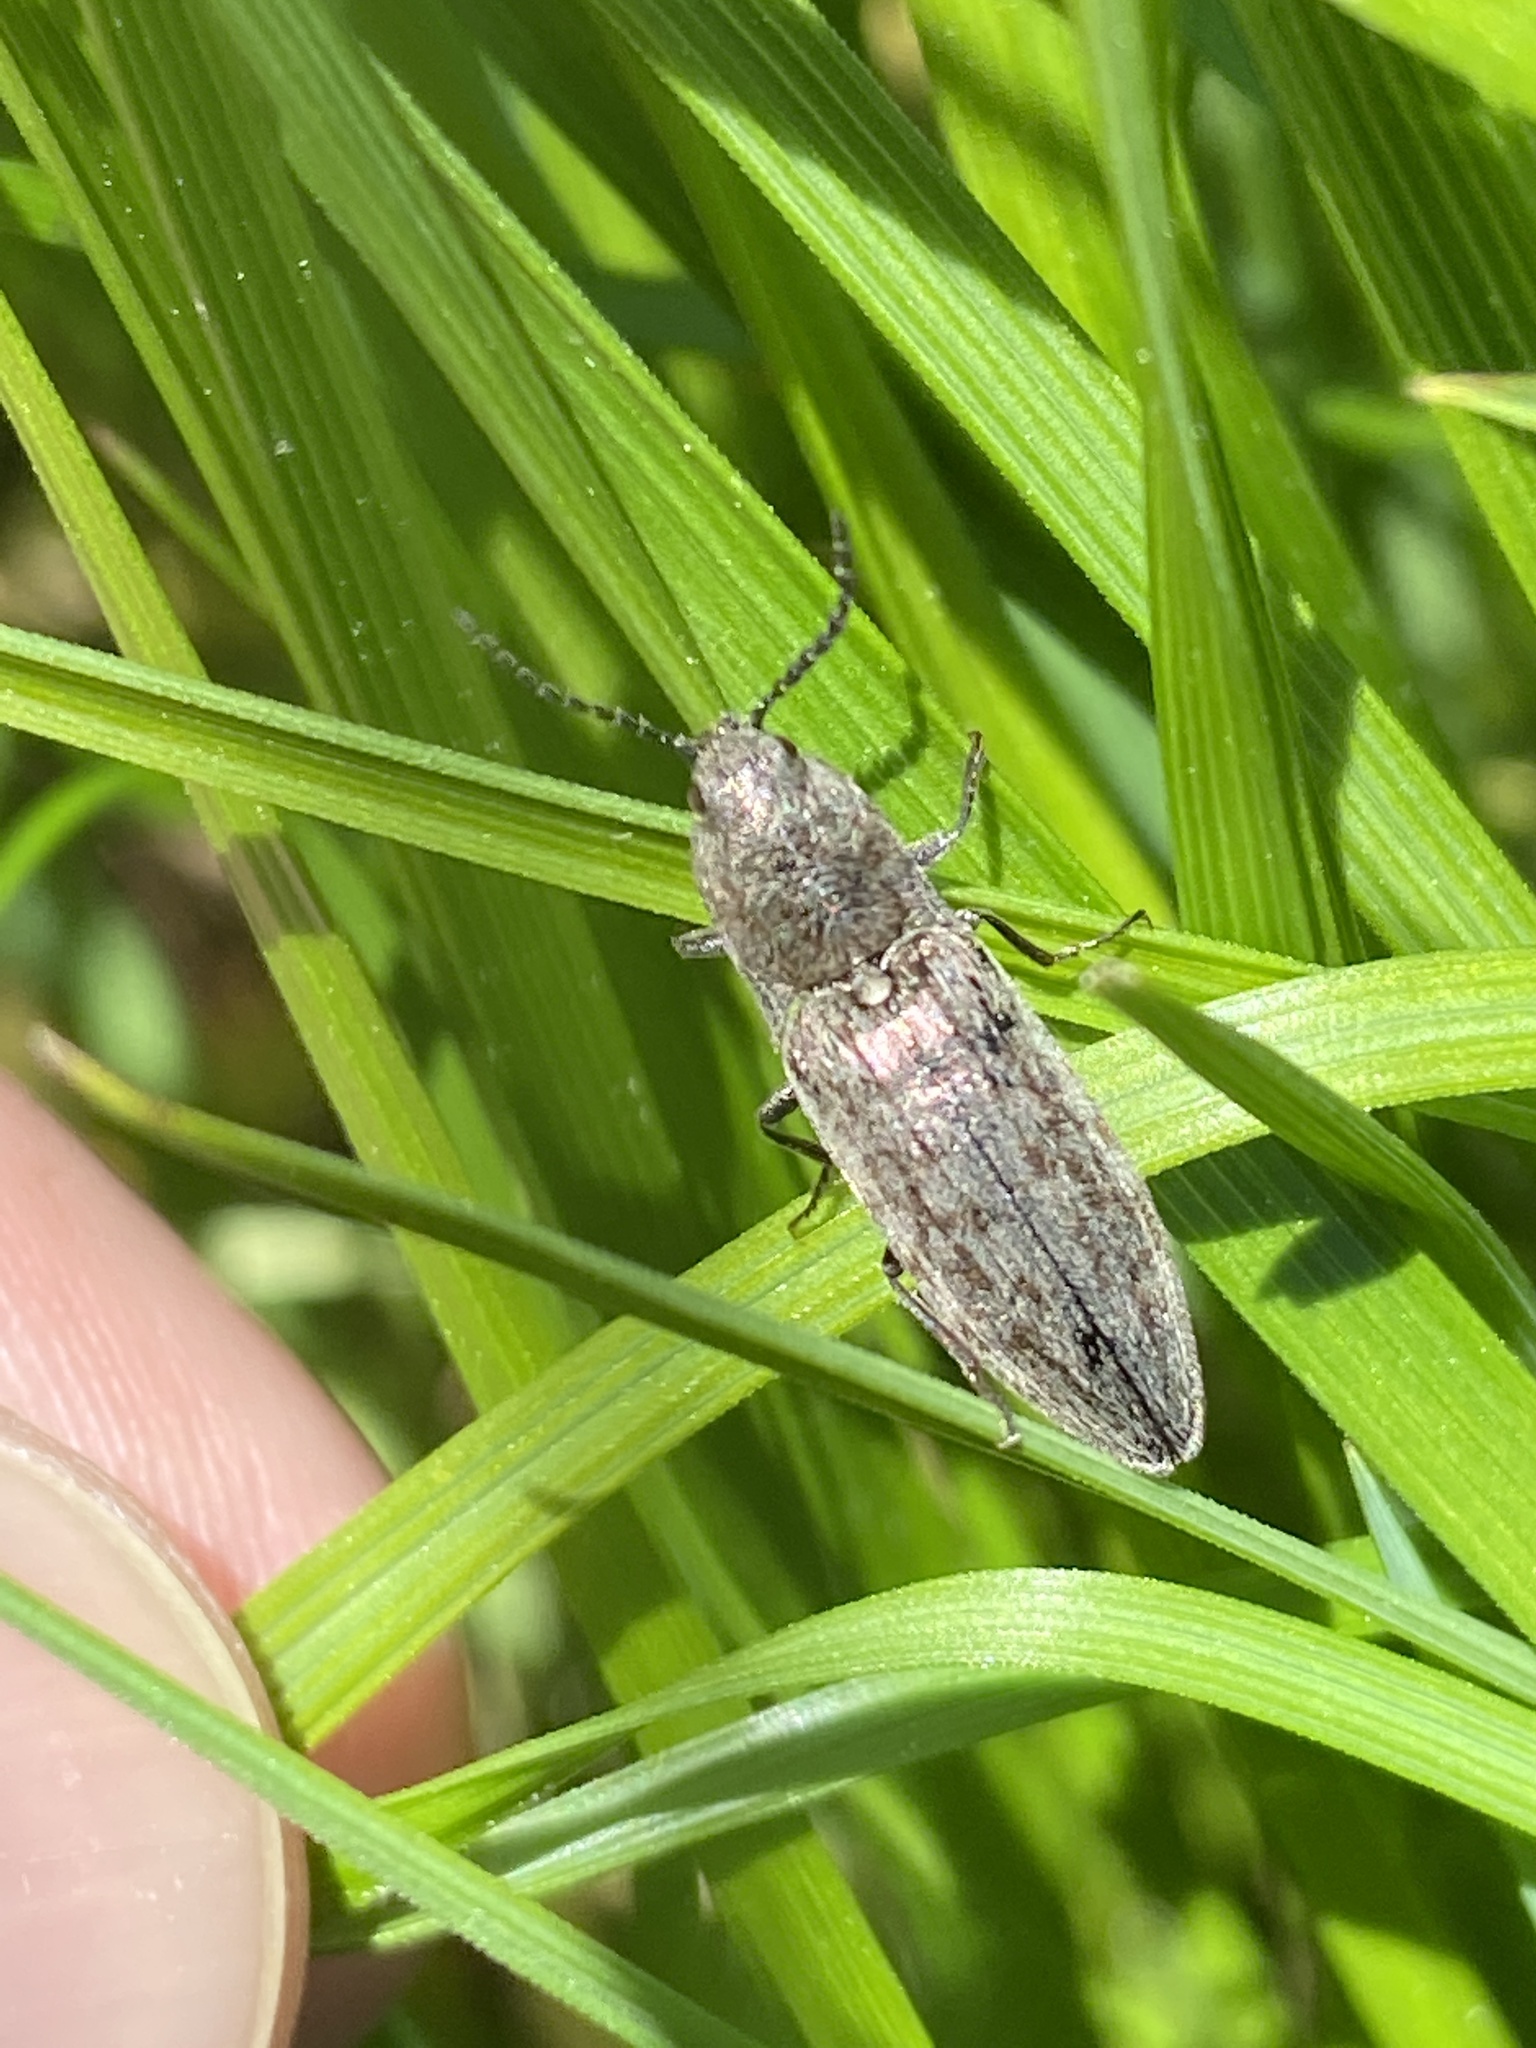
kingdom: Animalia
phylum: Arthropoda
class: Insecta
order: Coleoptera
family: Elateridae
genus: Actenicerus
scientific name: Actenicerus sjaelandicus
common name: Marsh click beetle
